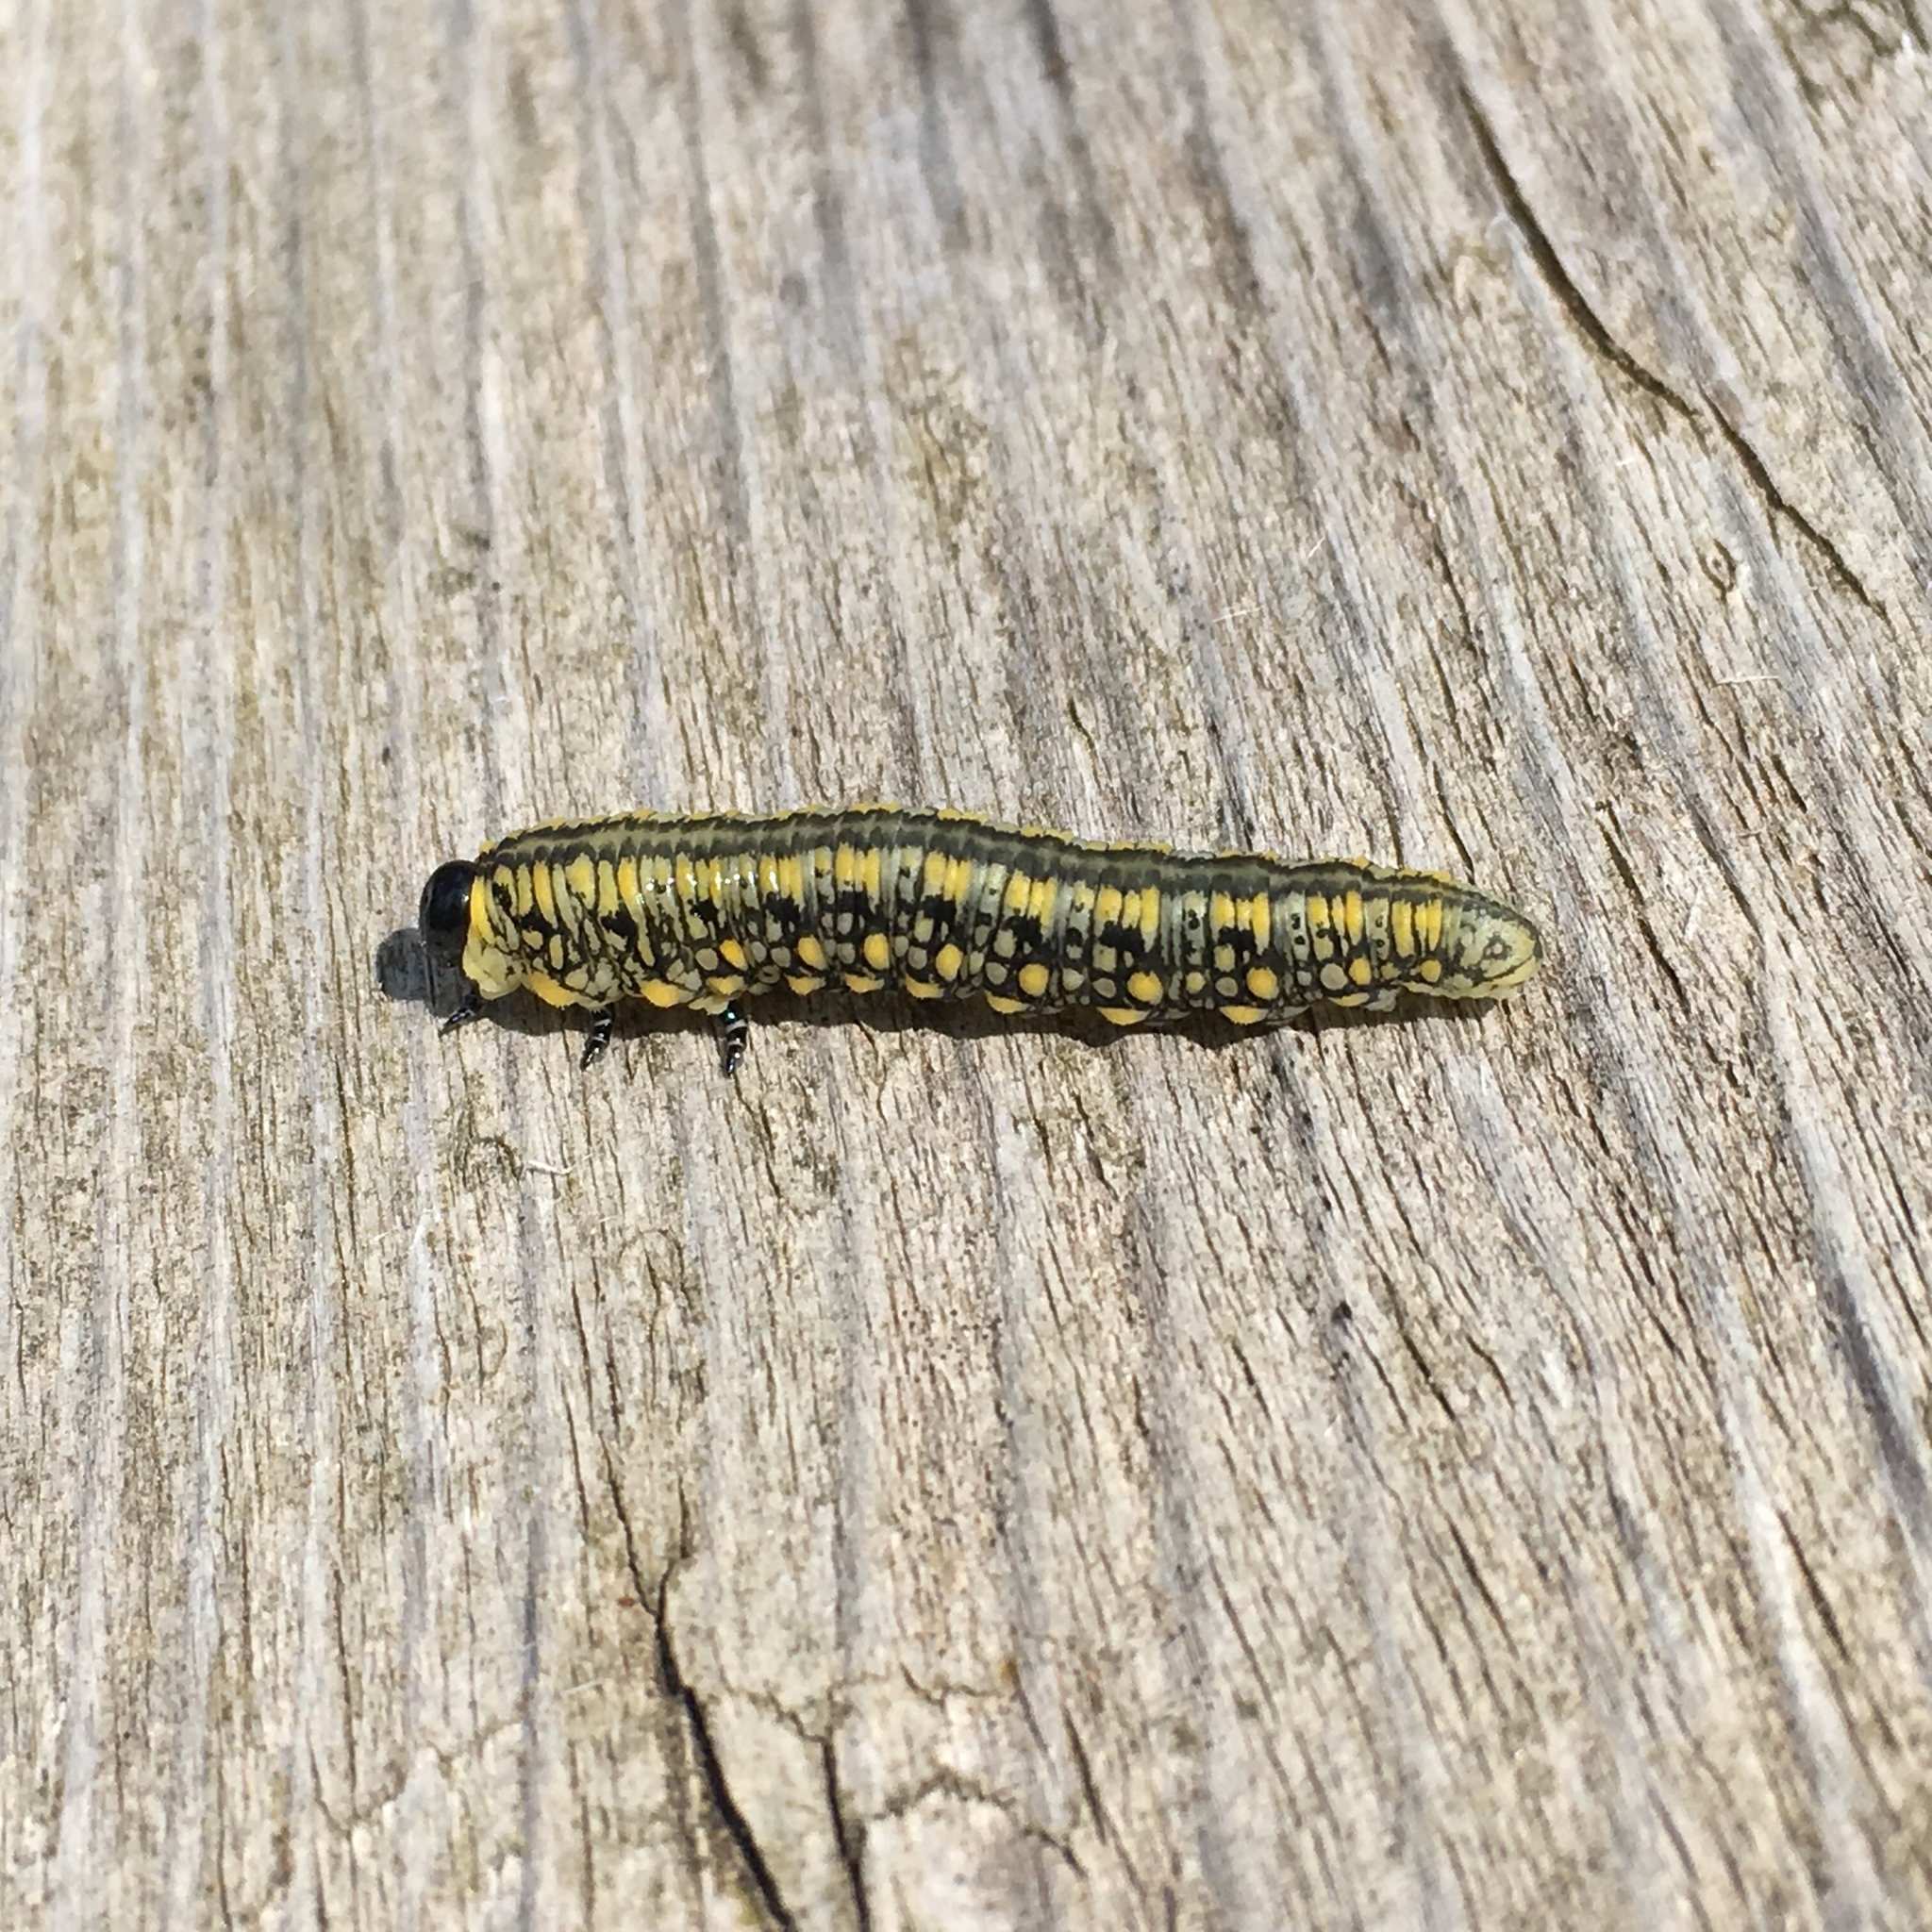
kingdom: Animalia
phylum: Arthropoda
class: Insecta
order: Hymenoptera
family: Diprionidae
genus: Diprion
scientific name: Diprion similis
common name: Pine sawfly
